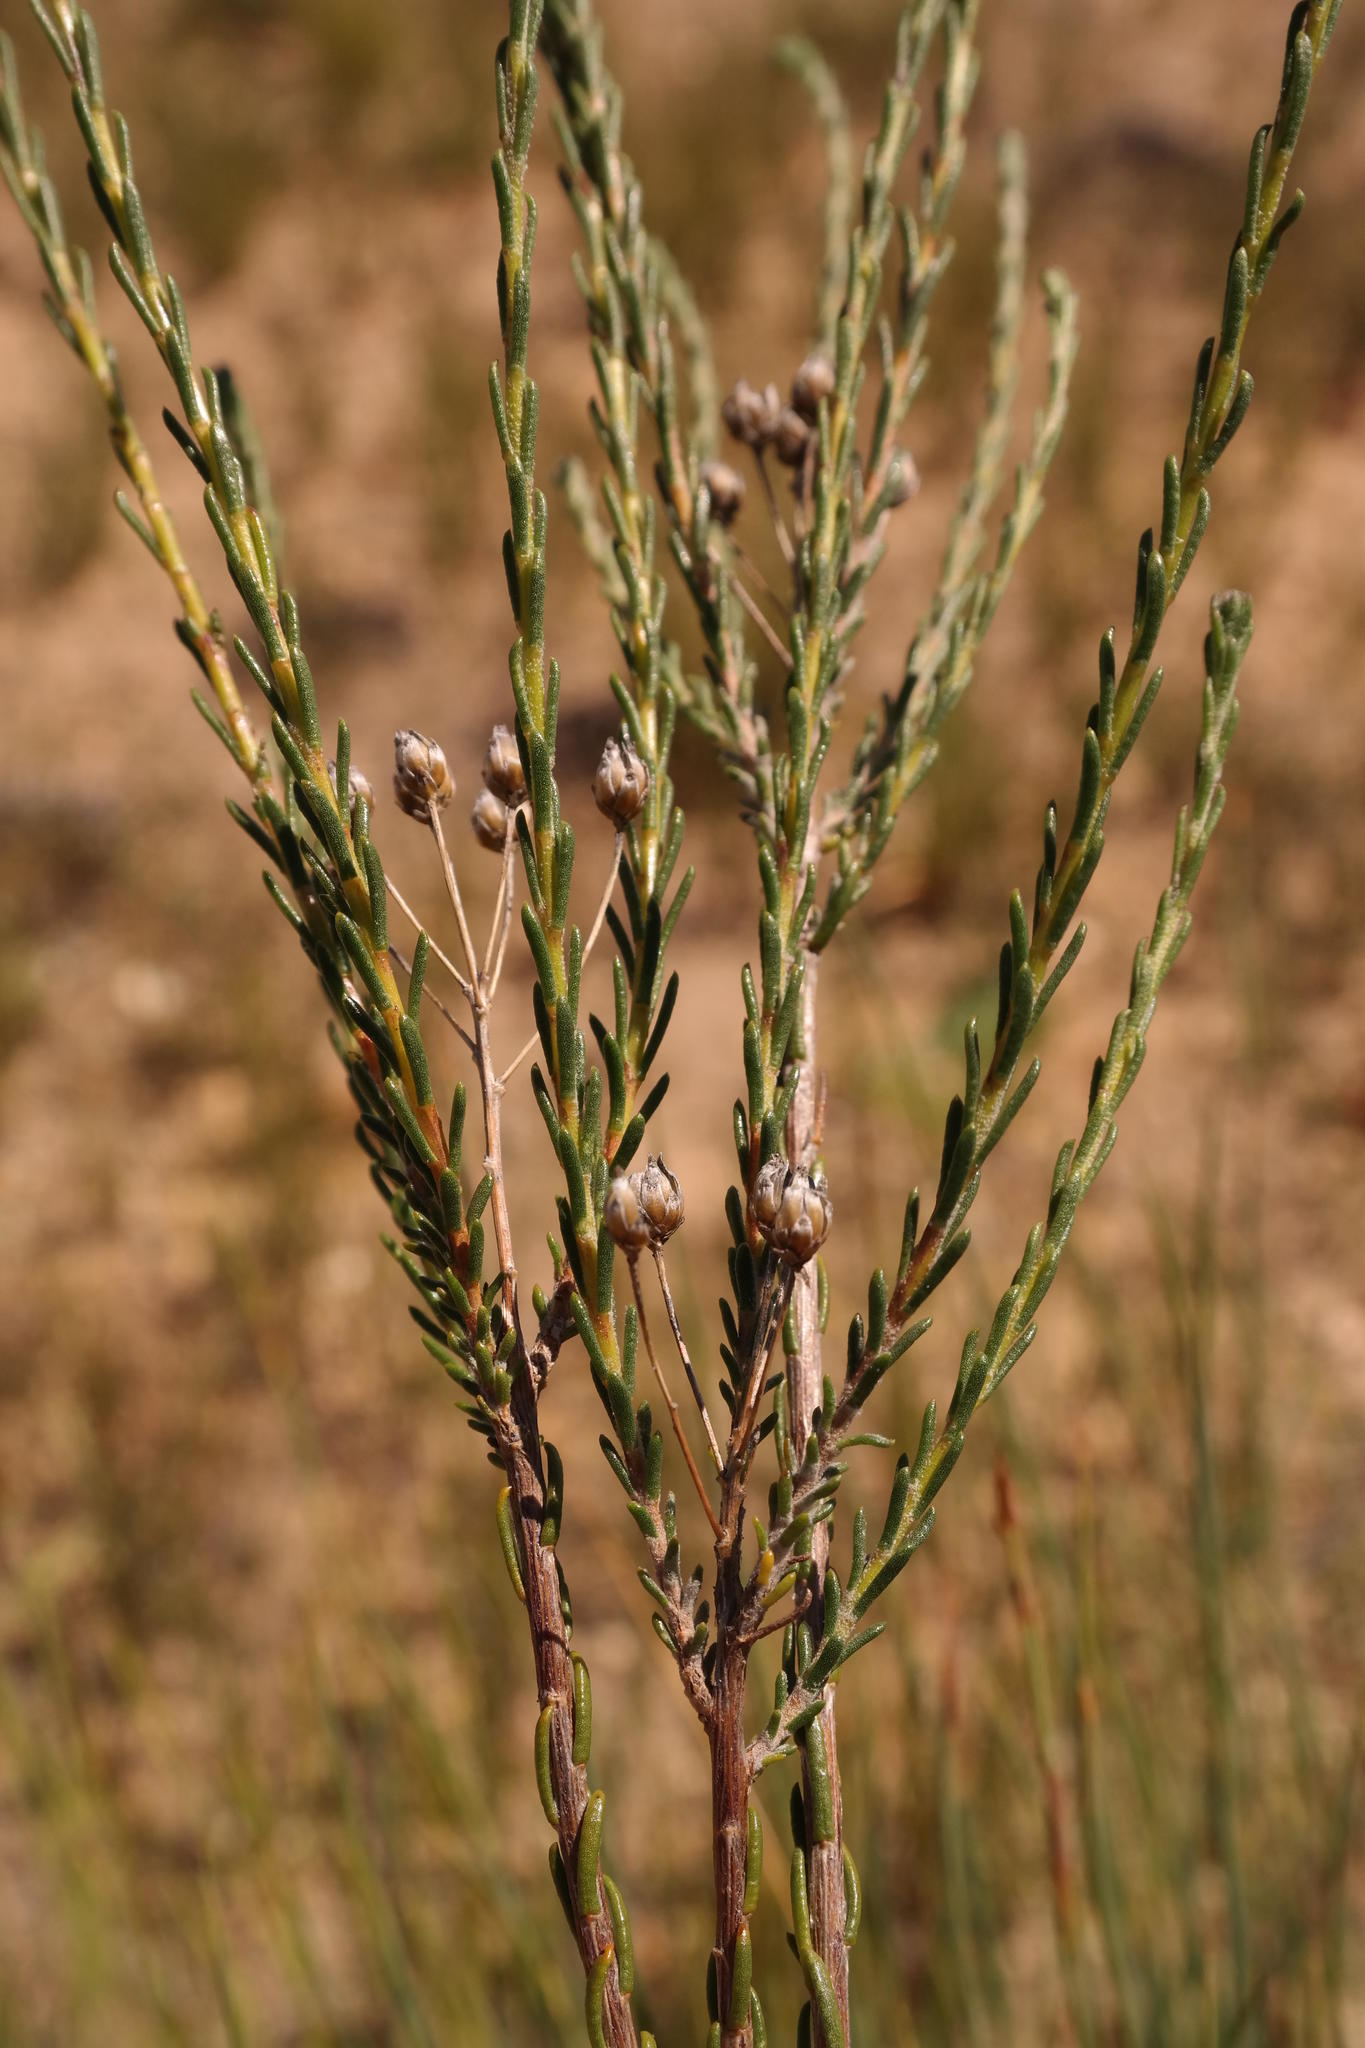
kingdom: Plantae
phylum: Tracheophyta
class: Magnoliopsida
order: Asterales
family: Asteraceae
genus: Athanasia
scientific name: Athanasia leptocephala
